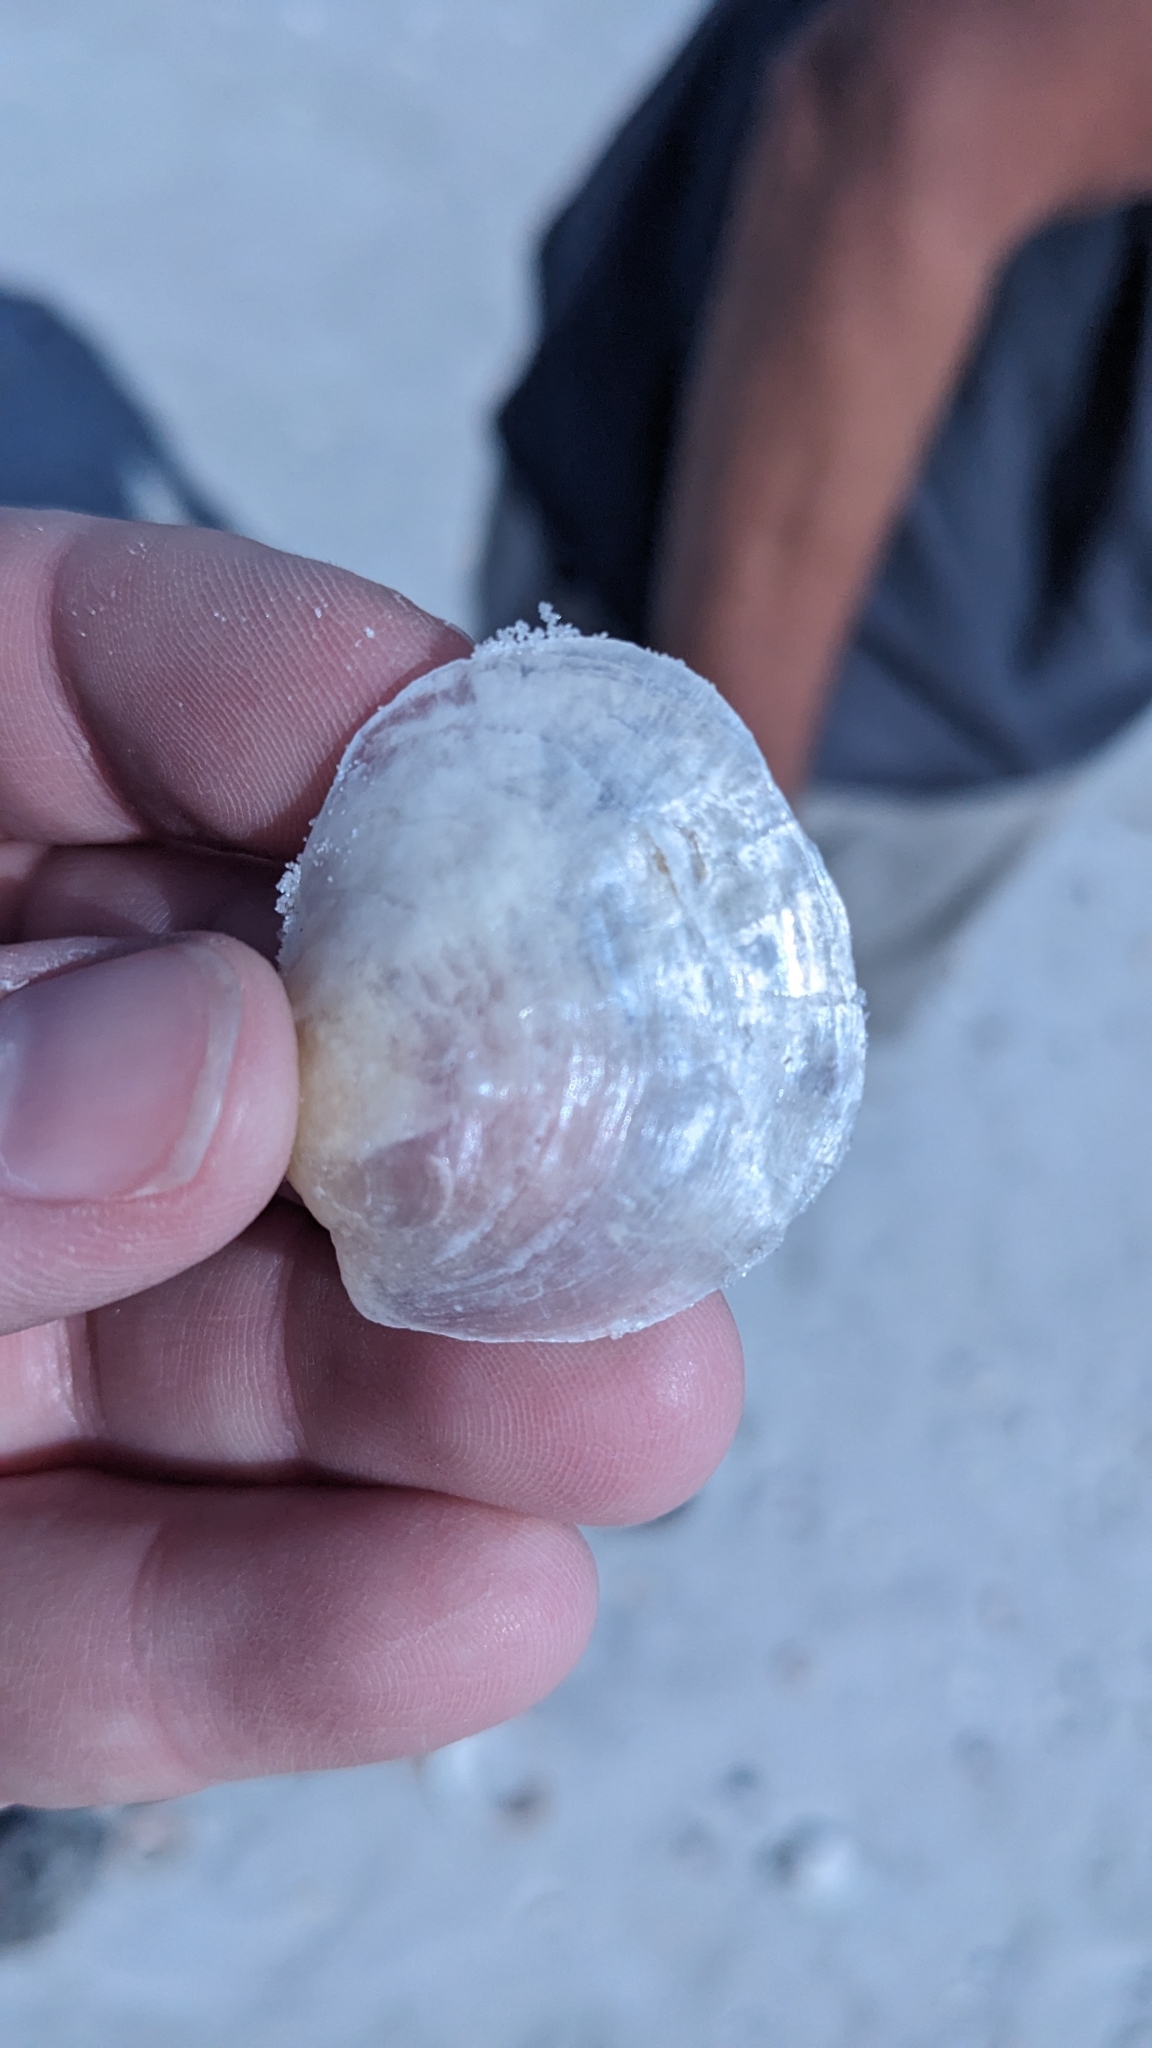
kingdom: Animalia
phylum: Mollusca
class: Bivalvia
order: Pectinida
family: Anomiidae
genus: Anomia
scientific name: Anomia simplex
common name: Common jingle shell
